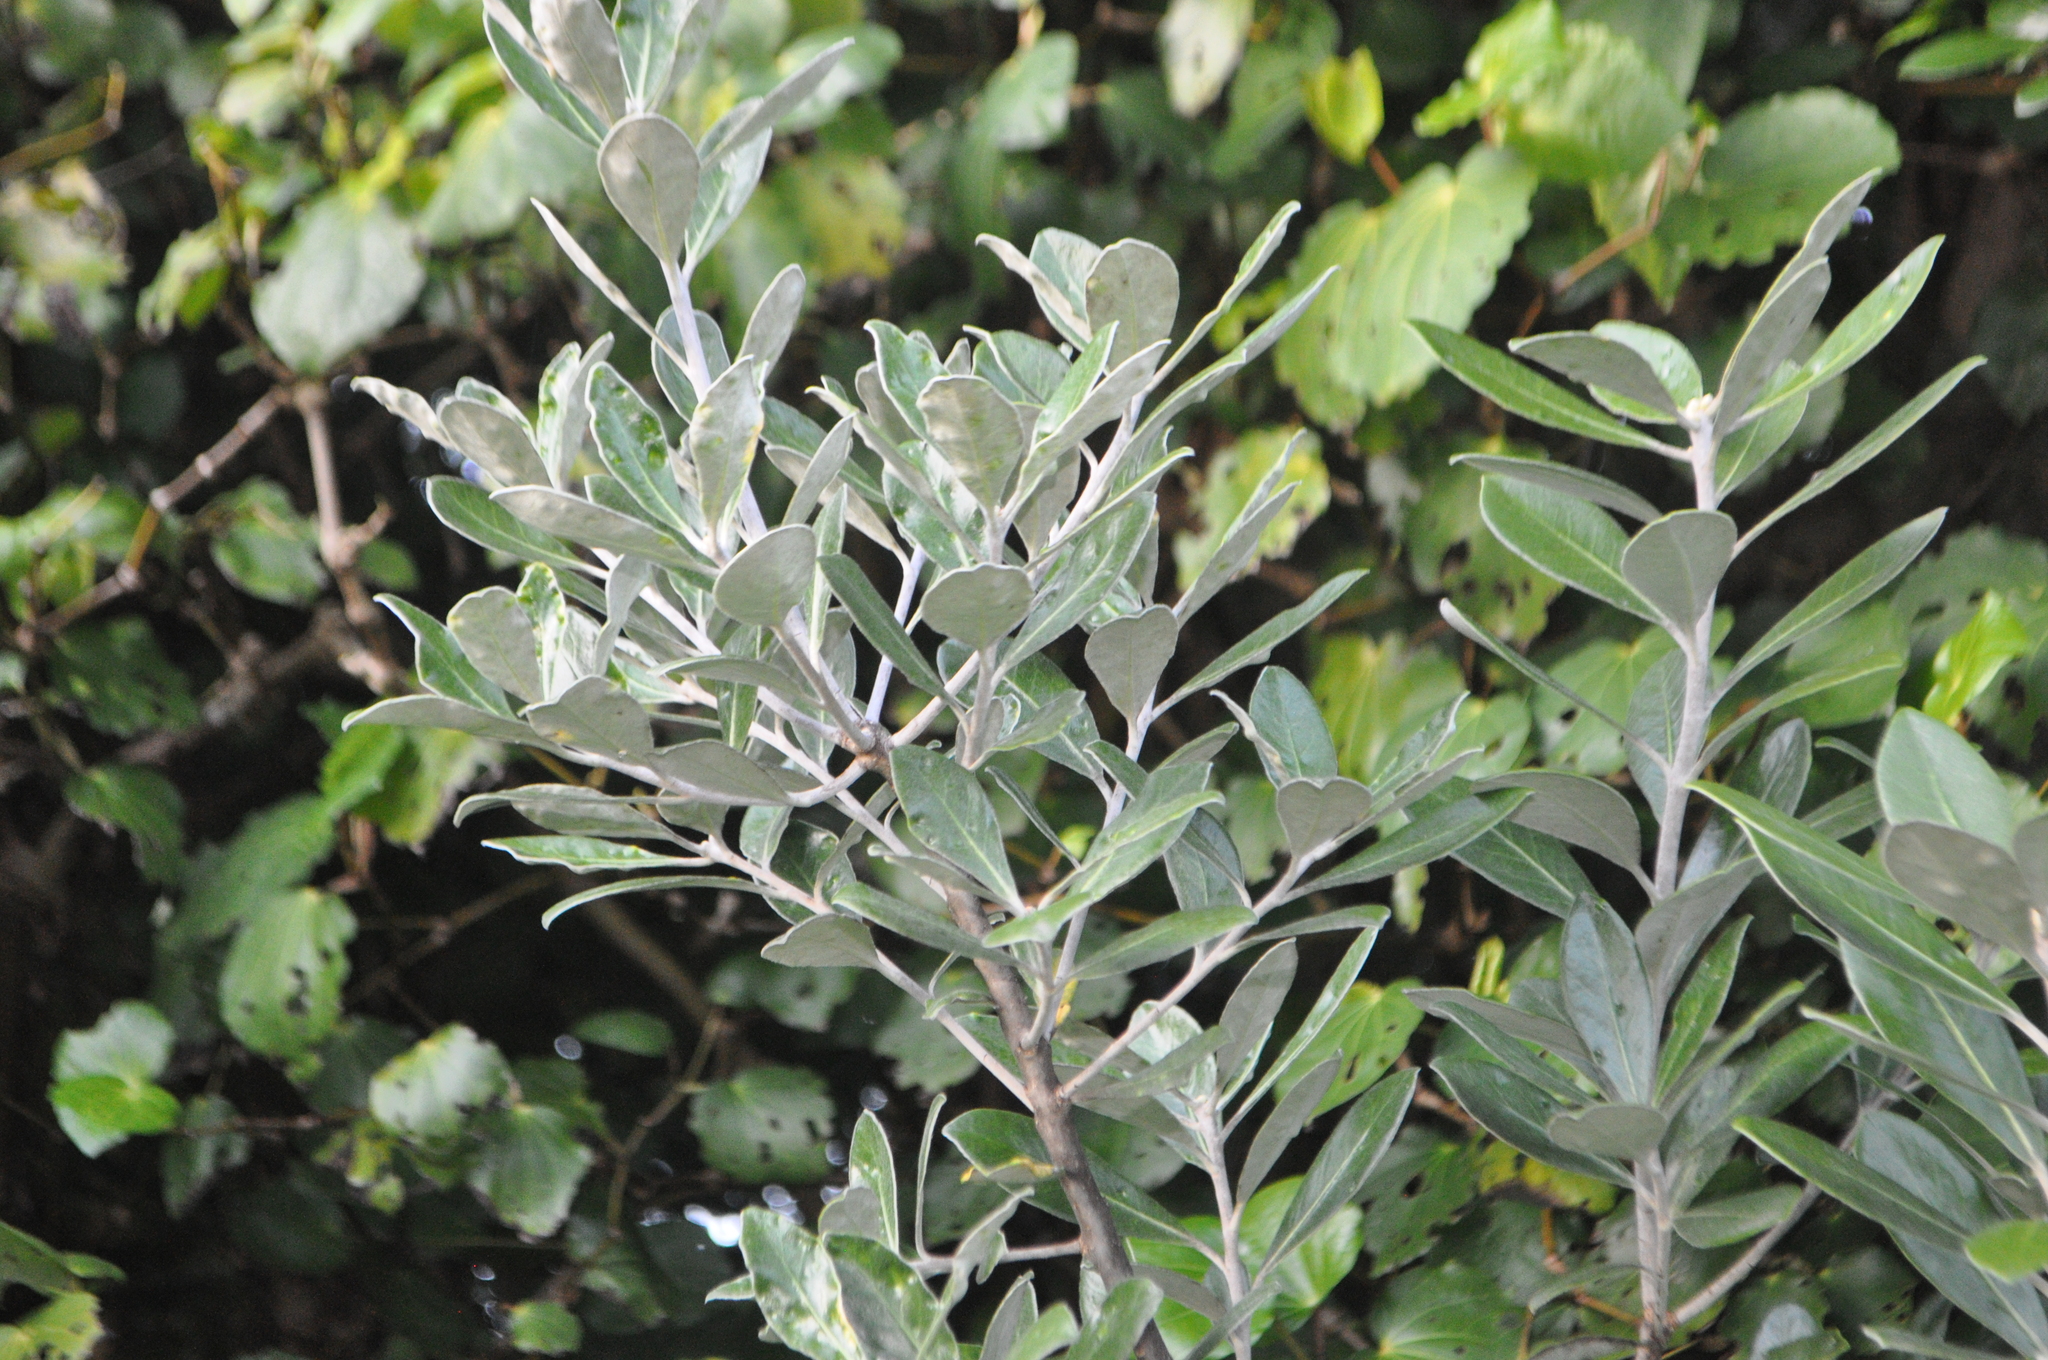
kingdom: Plantae
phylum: Tracheophyta
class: Magnoliopsida
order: Apiales
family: Pittosporaceae
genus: Pittosporum
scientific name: Pittosporum crassifolium
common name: Karo
